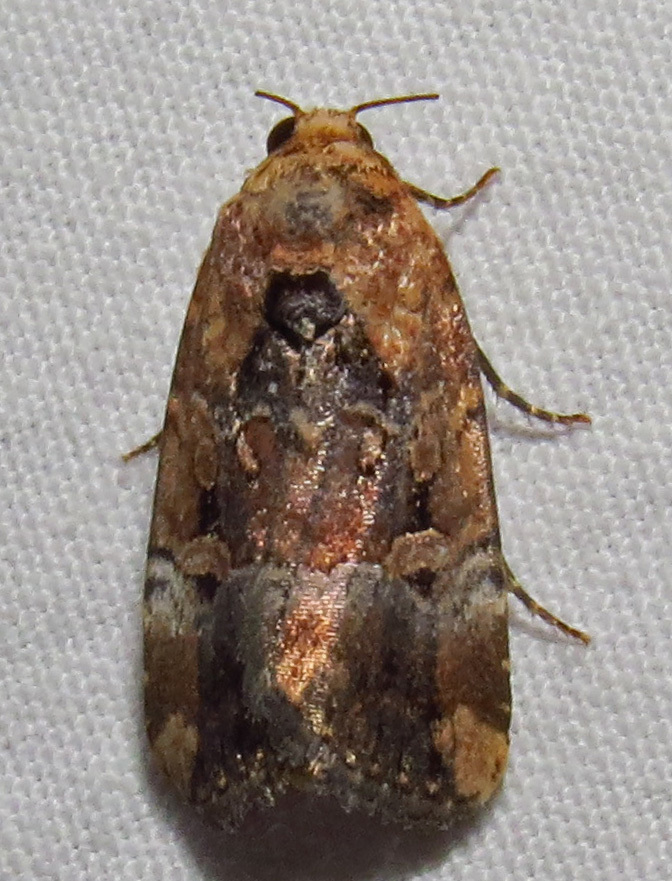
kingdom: Animalia
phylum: Arthropoda
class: Insecta
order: Lepidoptera
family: Noctuidae
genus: Elaphria
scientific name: Elaphria chalcedonia
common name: Chalcedony midget
